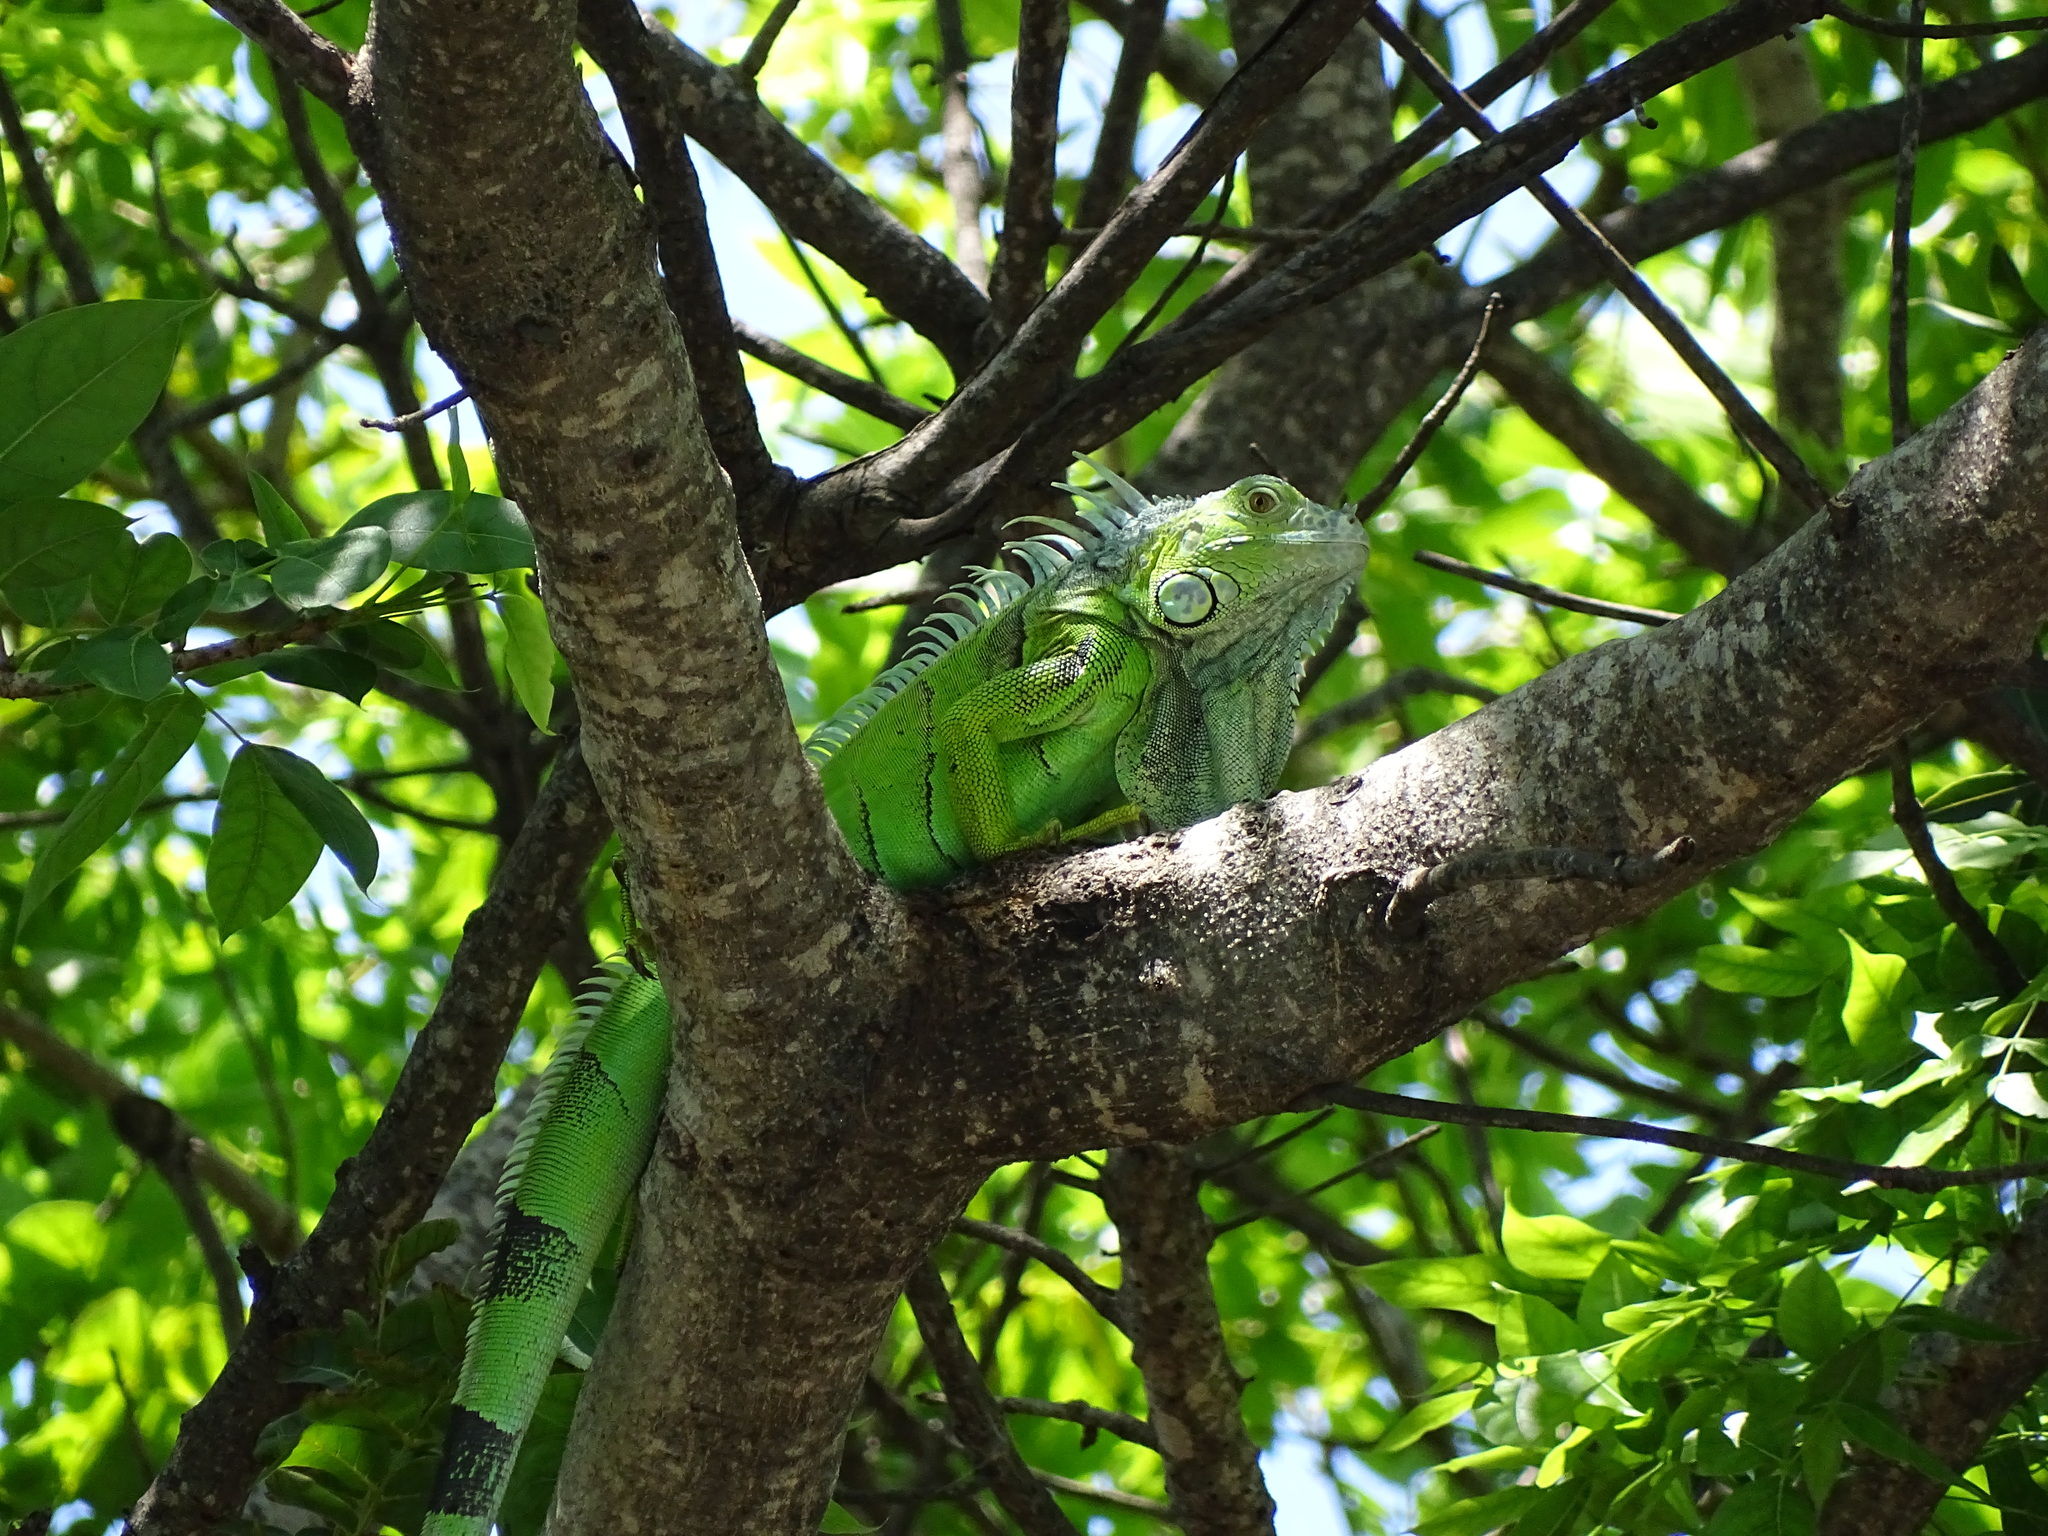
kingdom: Animalia
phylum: Chordata
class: Squamata
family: Iguanidae
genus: Iguana
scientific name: Iguana iguana
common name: Green iguana
